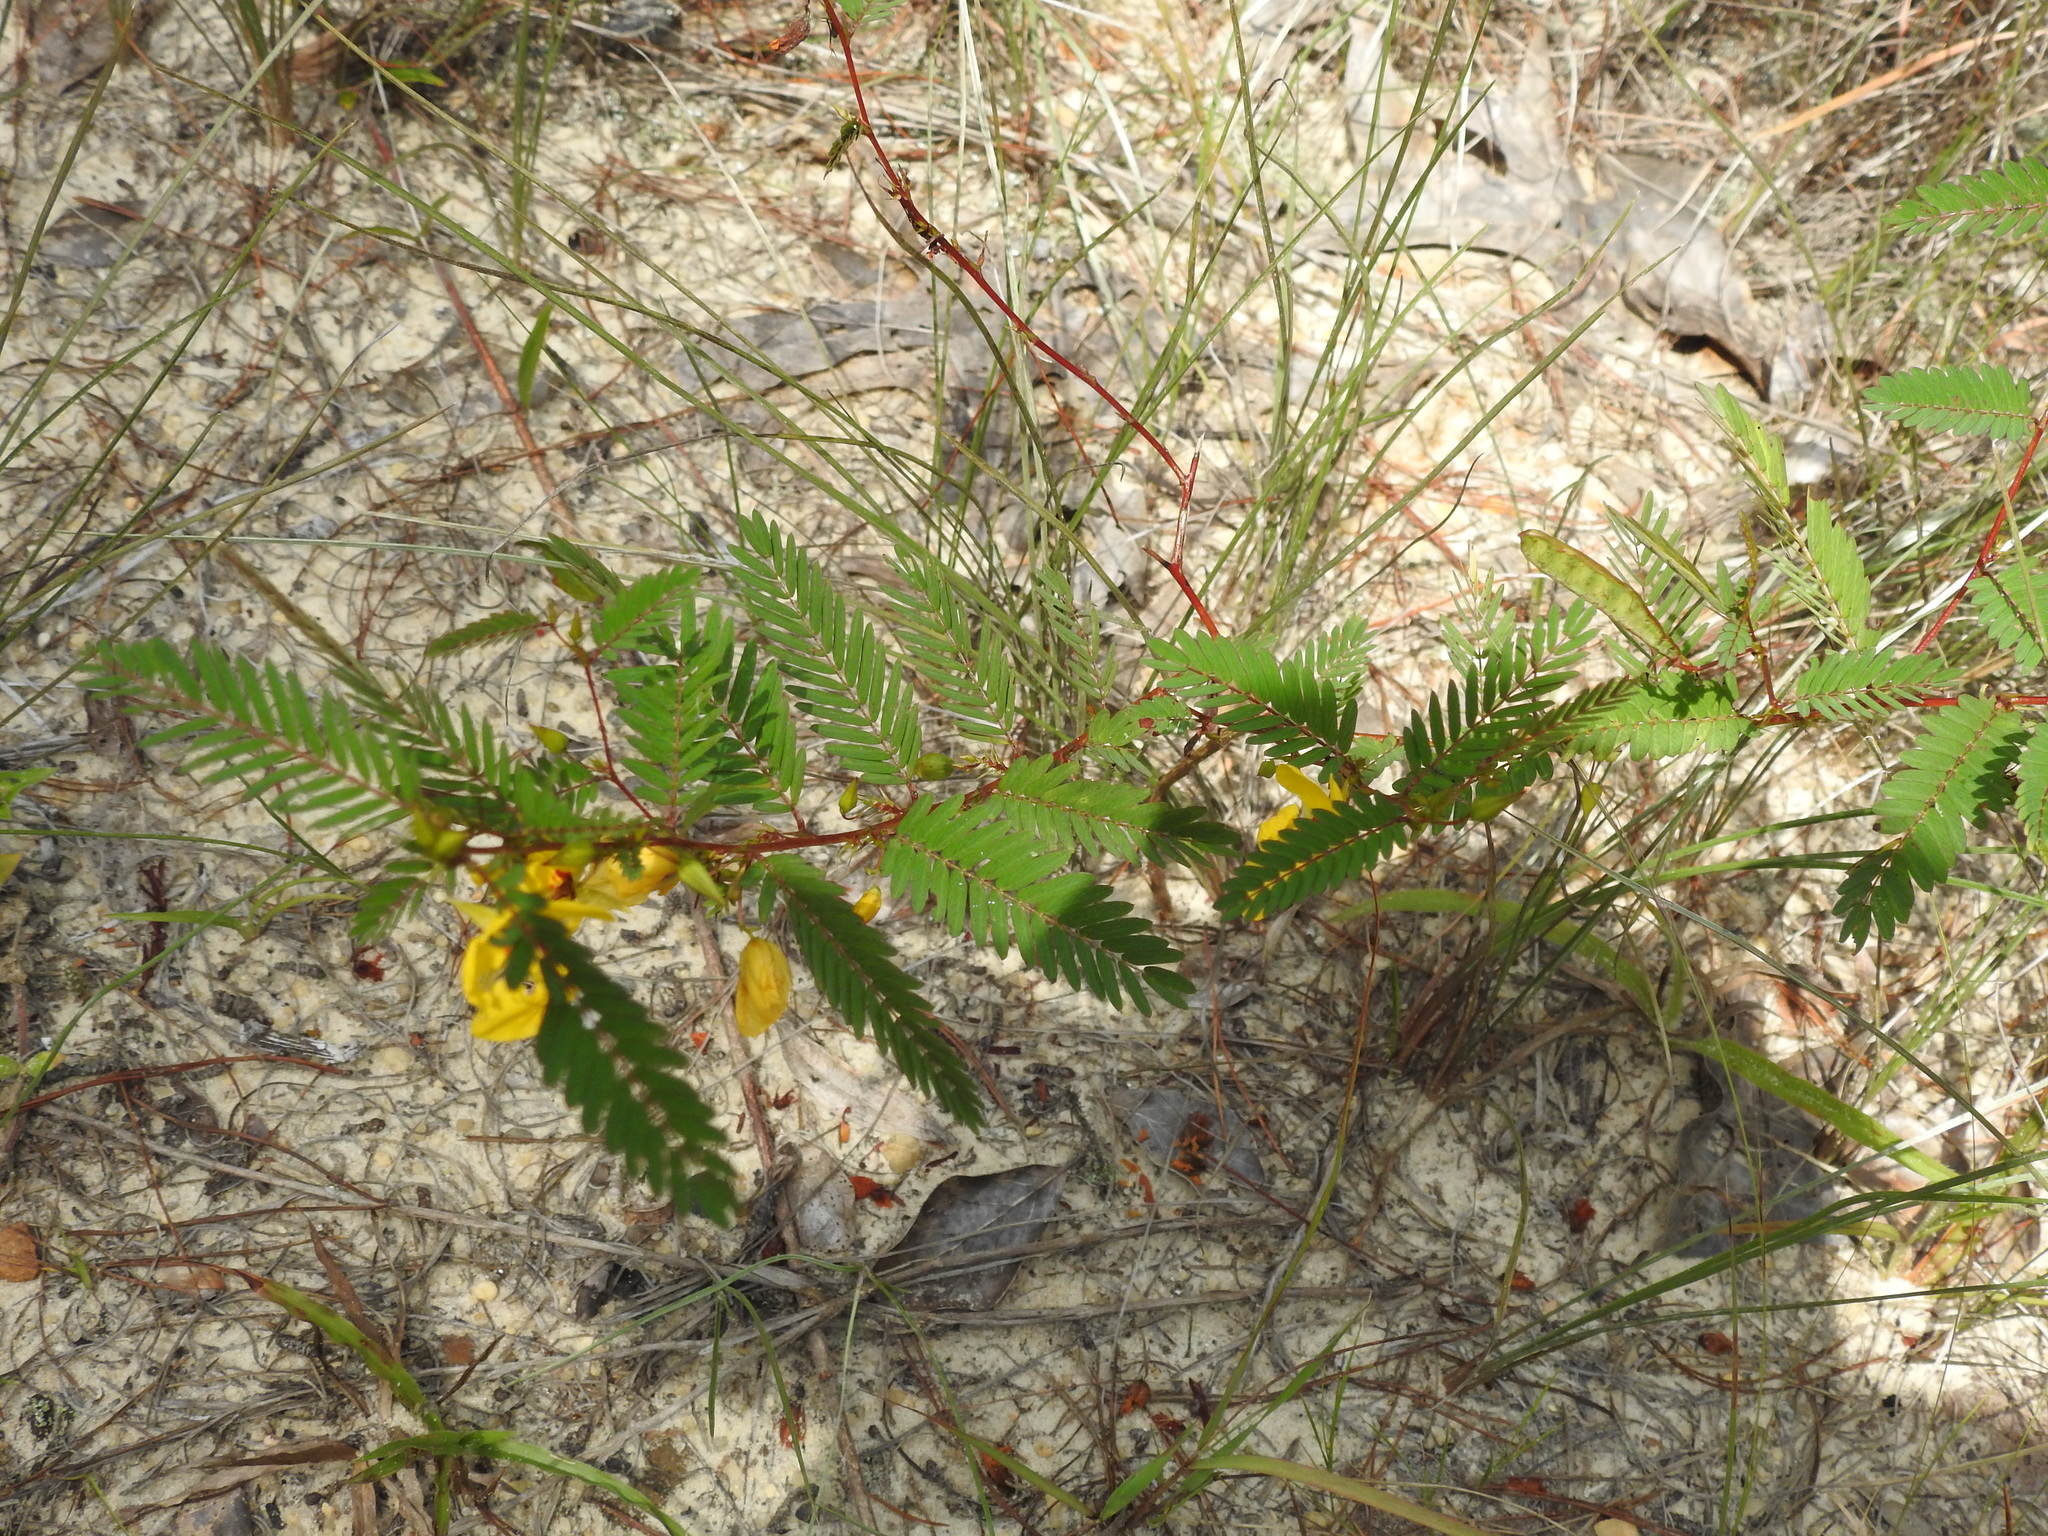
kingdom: Plantae
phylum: Tracheophyta
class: Magnoliopsida
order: Fabales
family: Fabaceae
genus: Chamaecrista
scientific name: Chamaecrista fasciculata
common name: Golden cassia
